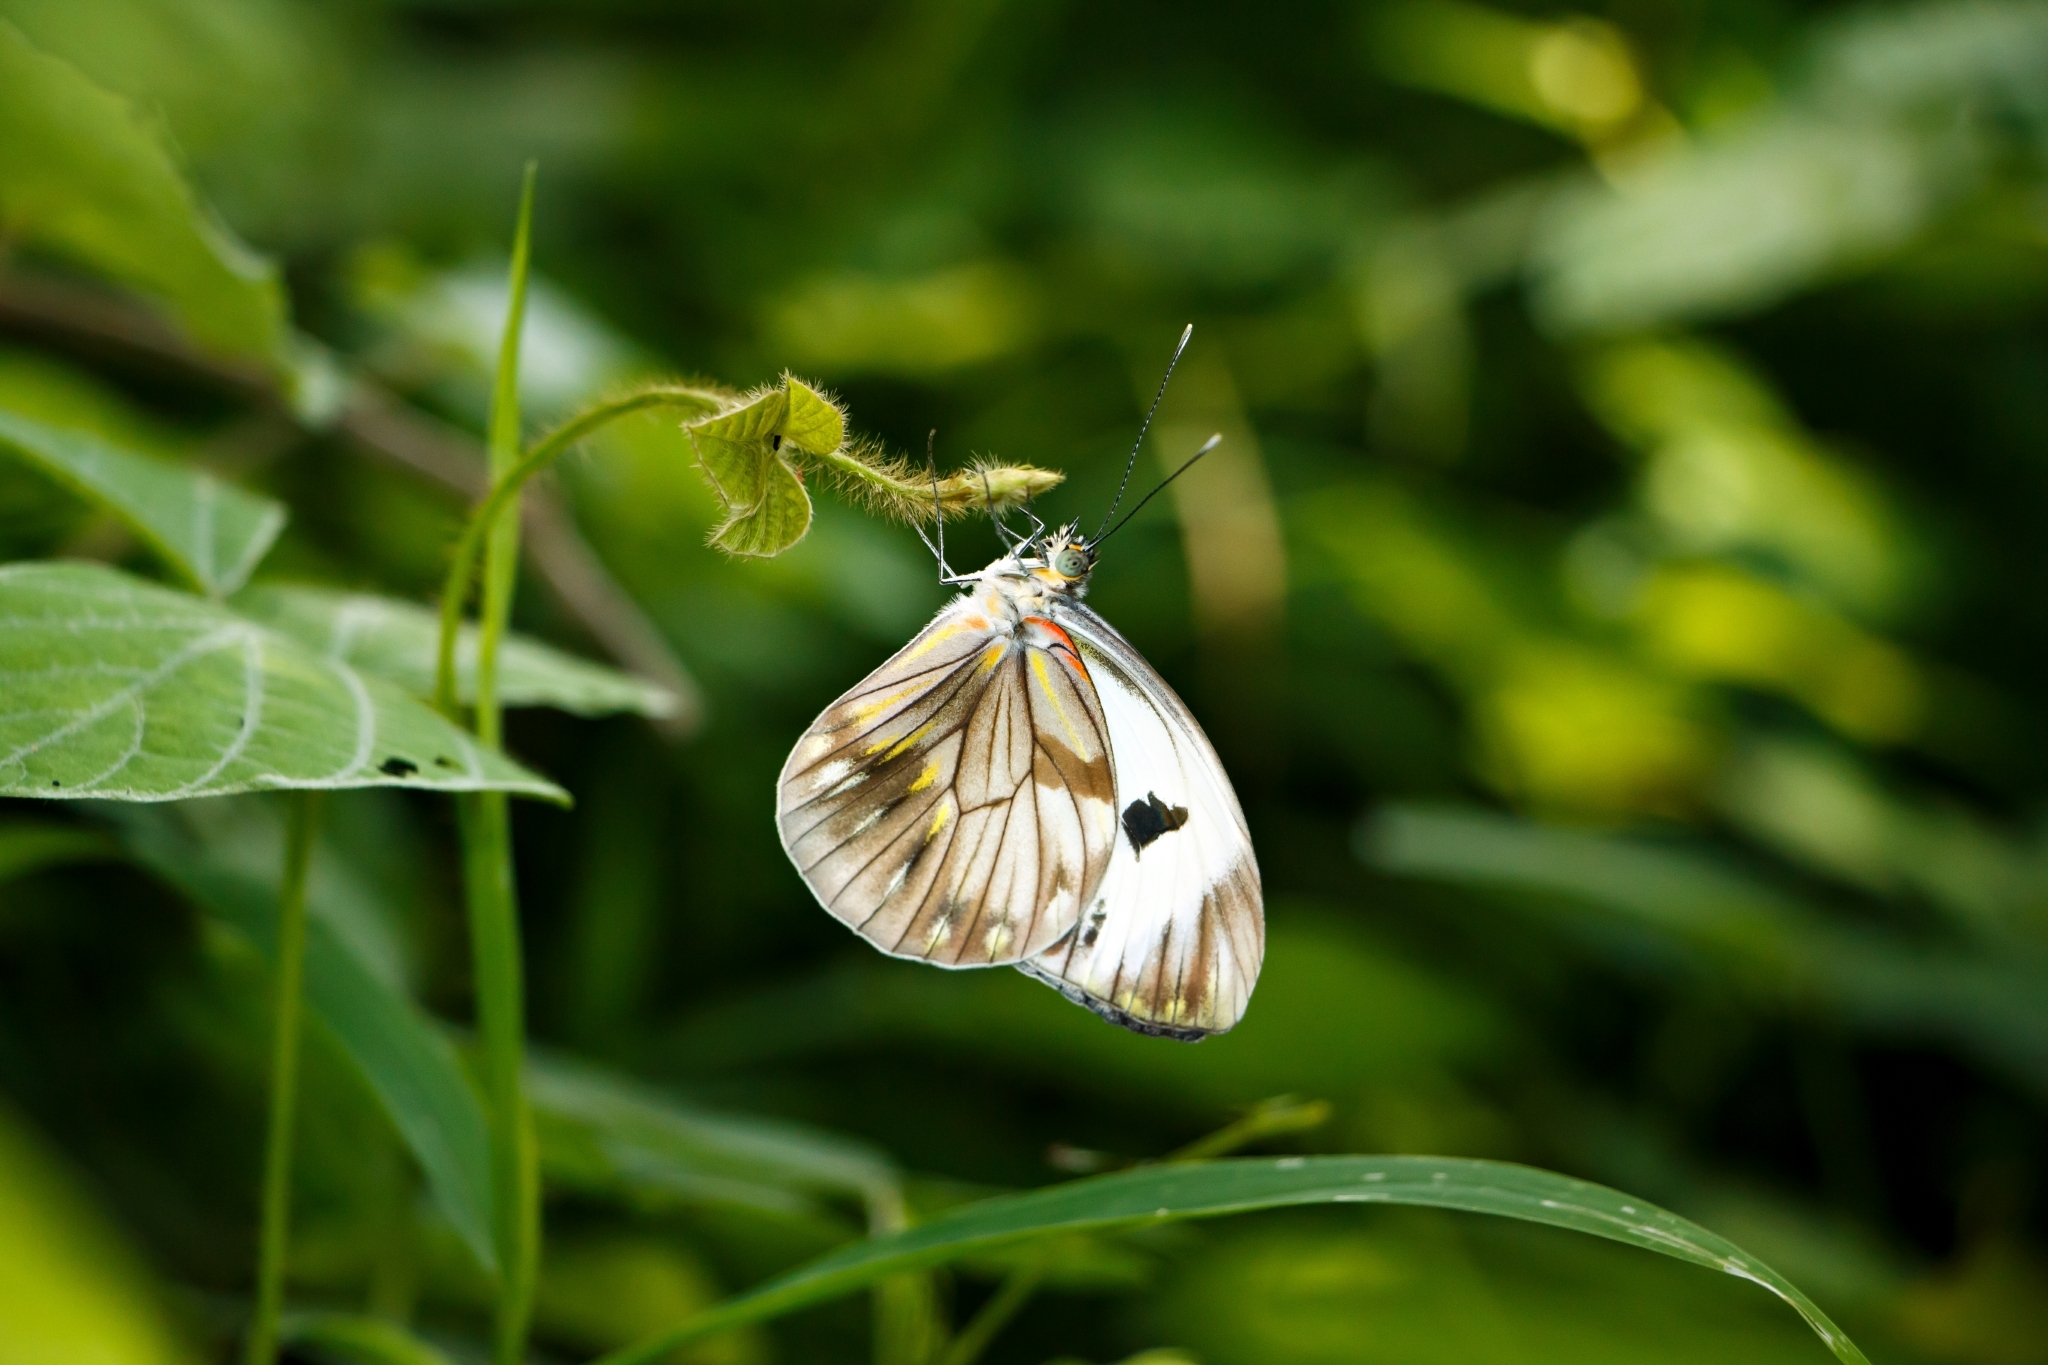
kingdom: Animalia
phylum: Arthropoda
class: Insecta
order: Lepidoptera
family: Pieridae
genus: Pieriballia
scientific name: Pieriballia viardi
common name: Painted white
